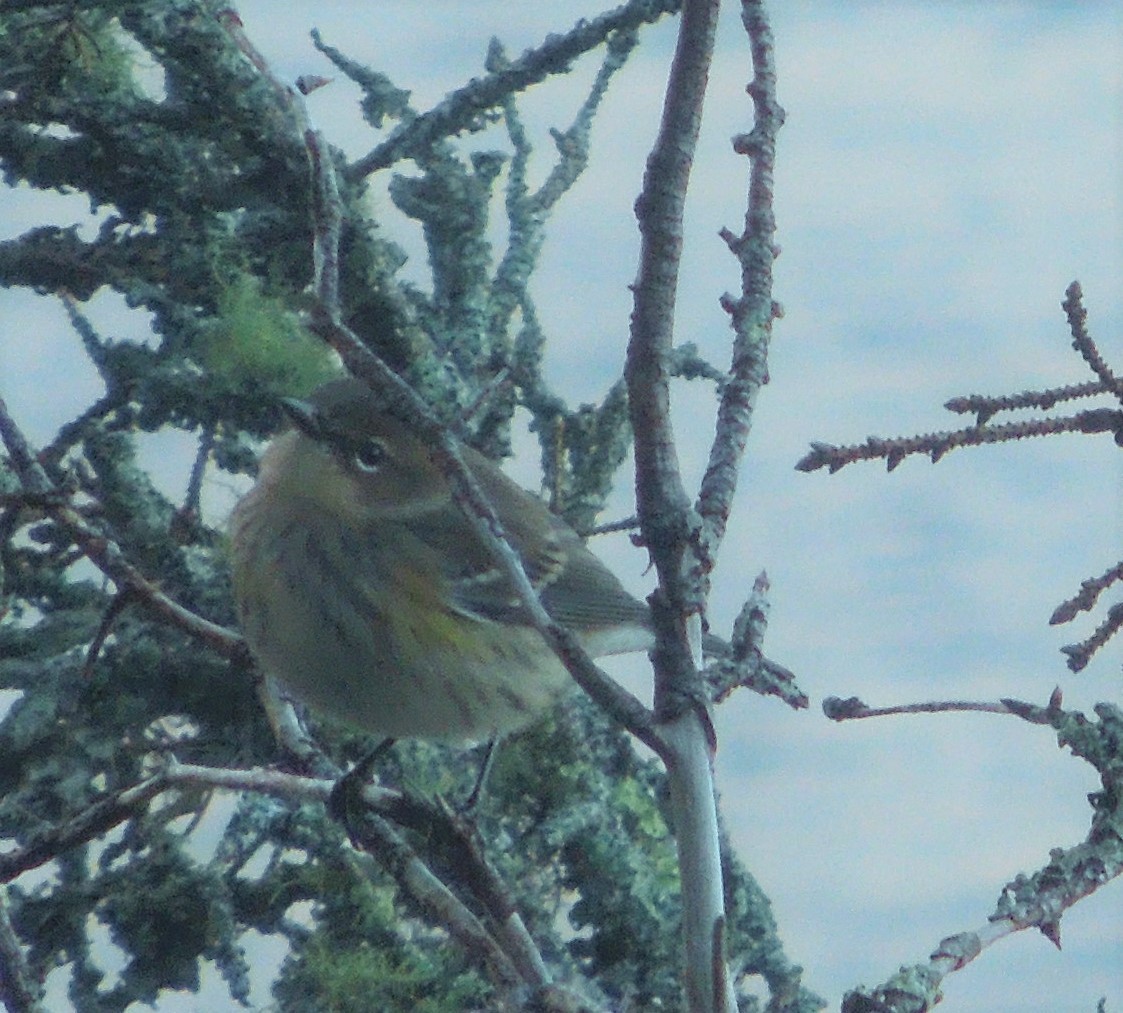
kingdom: Animalia
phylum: Chordata
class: Aves
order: Passeriformes
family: Parulidae
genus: Setophaga
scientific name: Setophaga coronata
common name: Myrtle warbler
